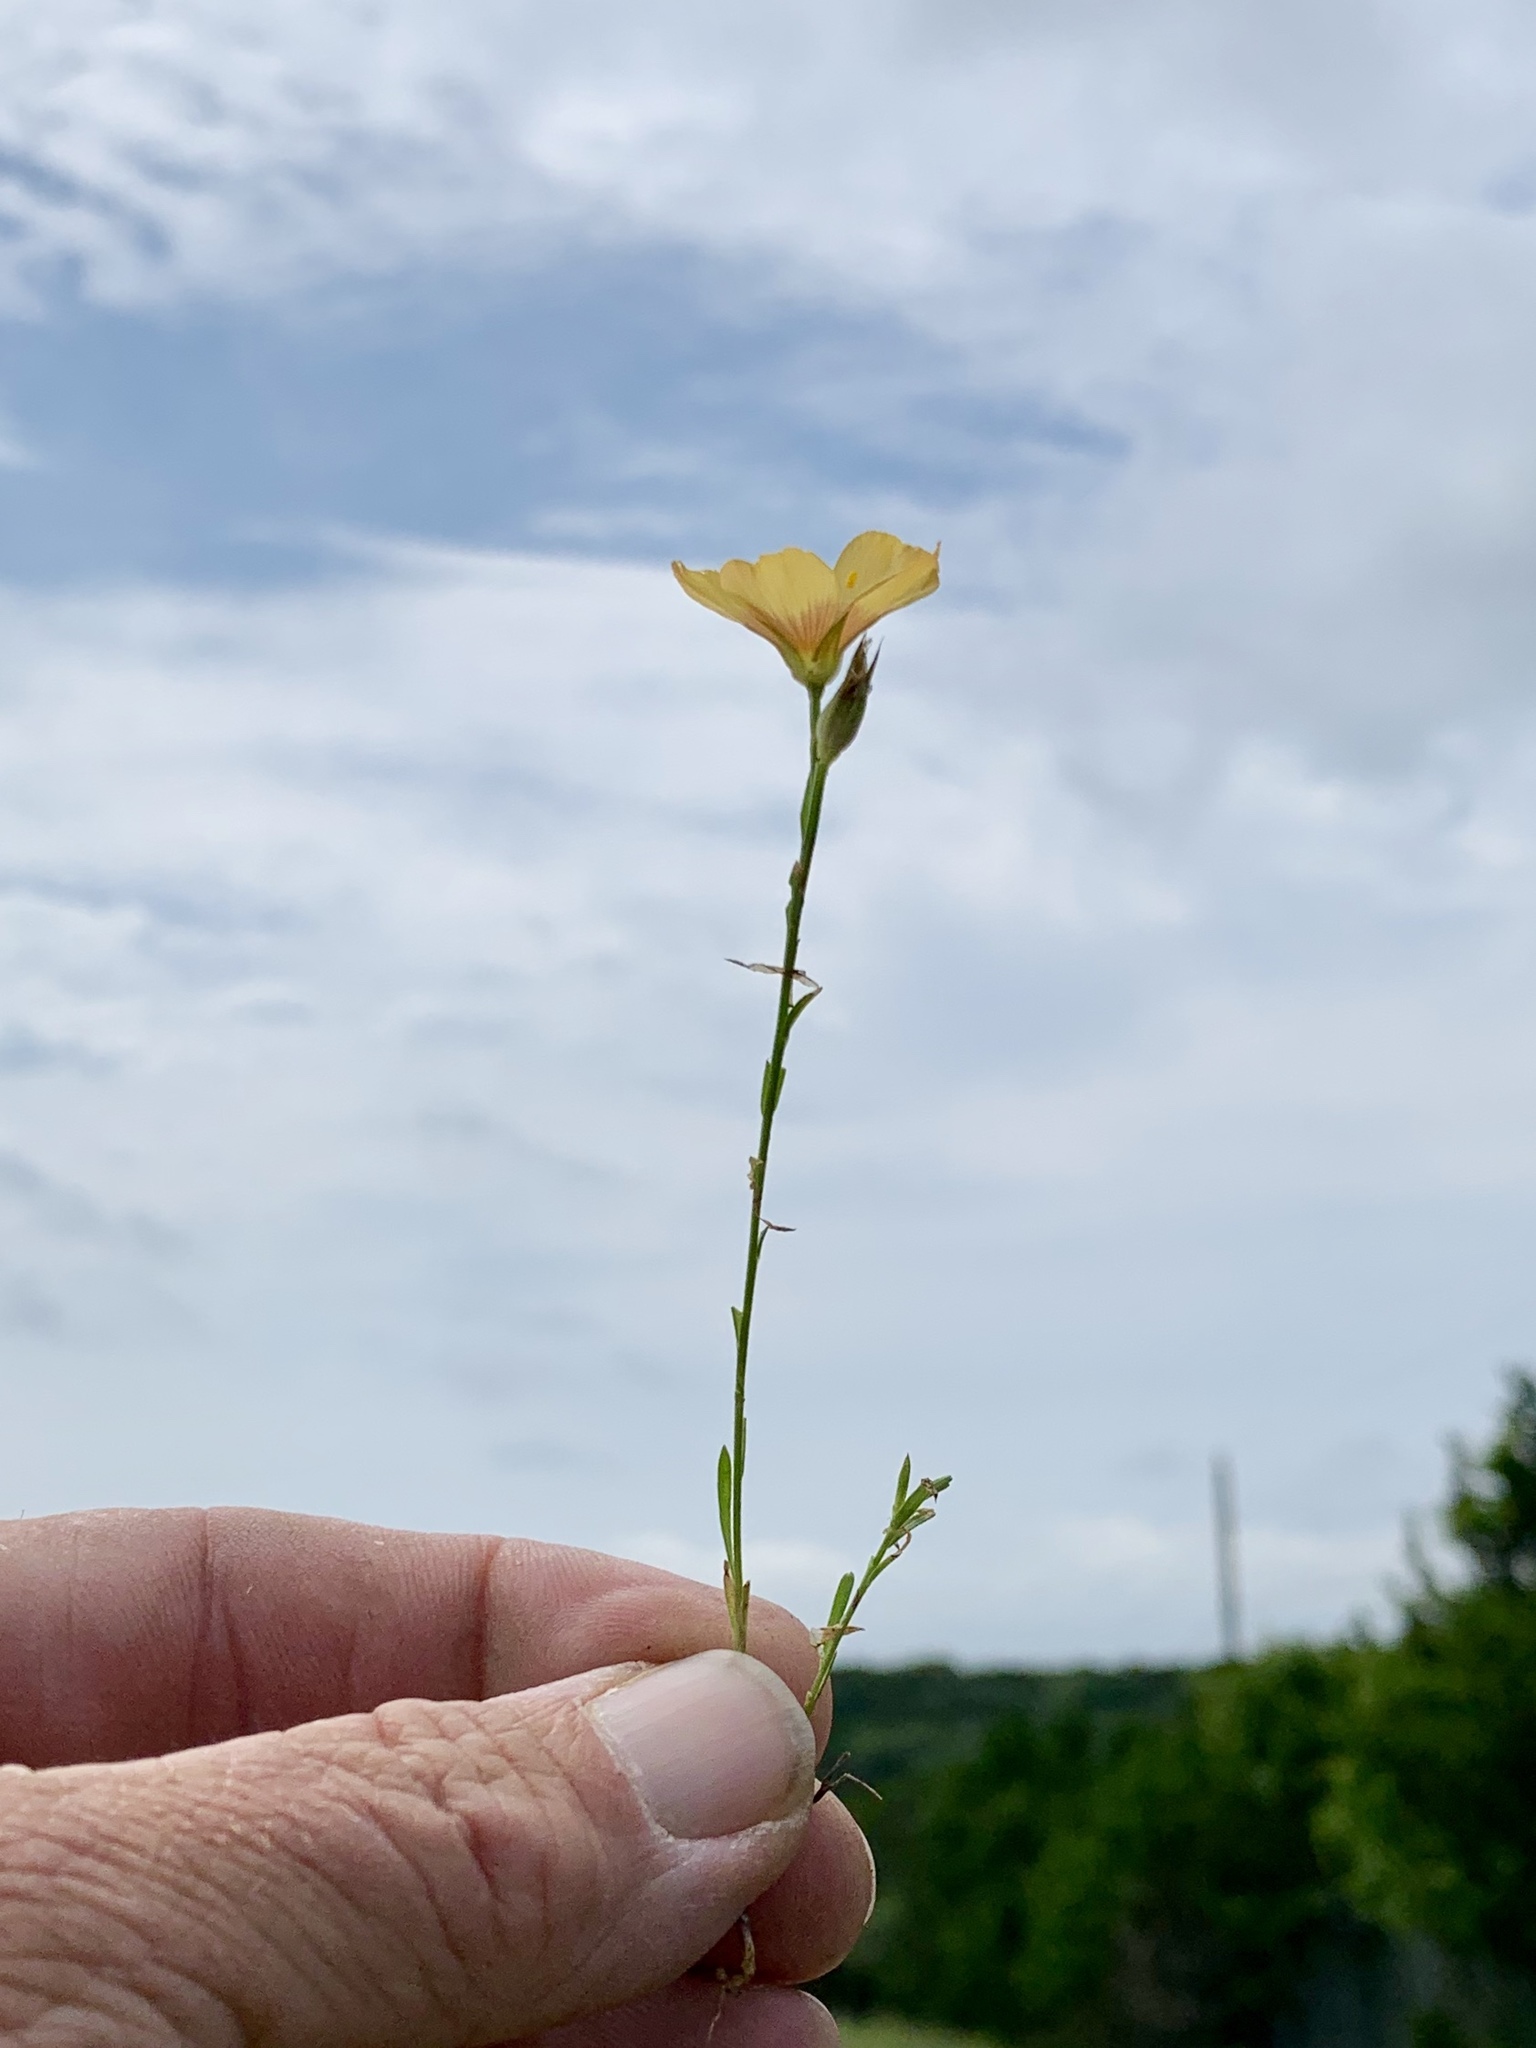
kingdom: Plantae
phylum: Tracheophyta
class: Magnoliopsida
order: Malpighiales
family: Linaceae
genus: Linum
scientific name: Linum berlandieri
